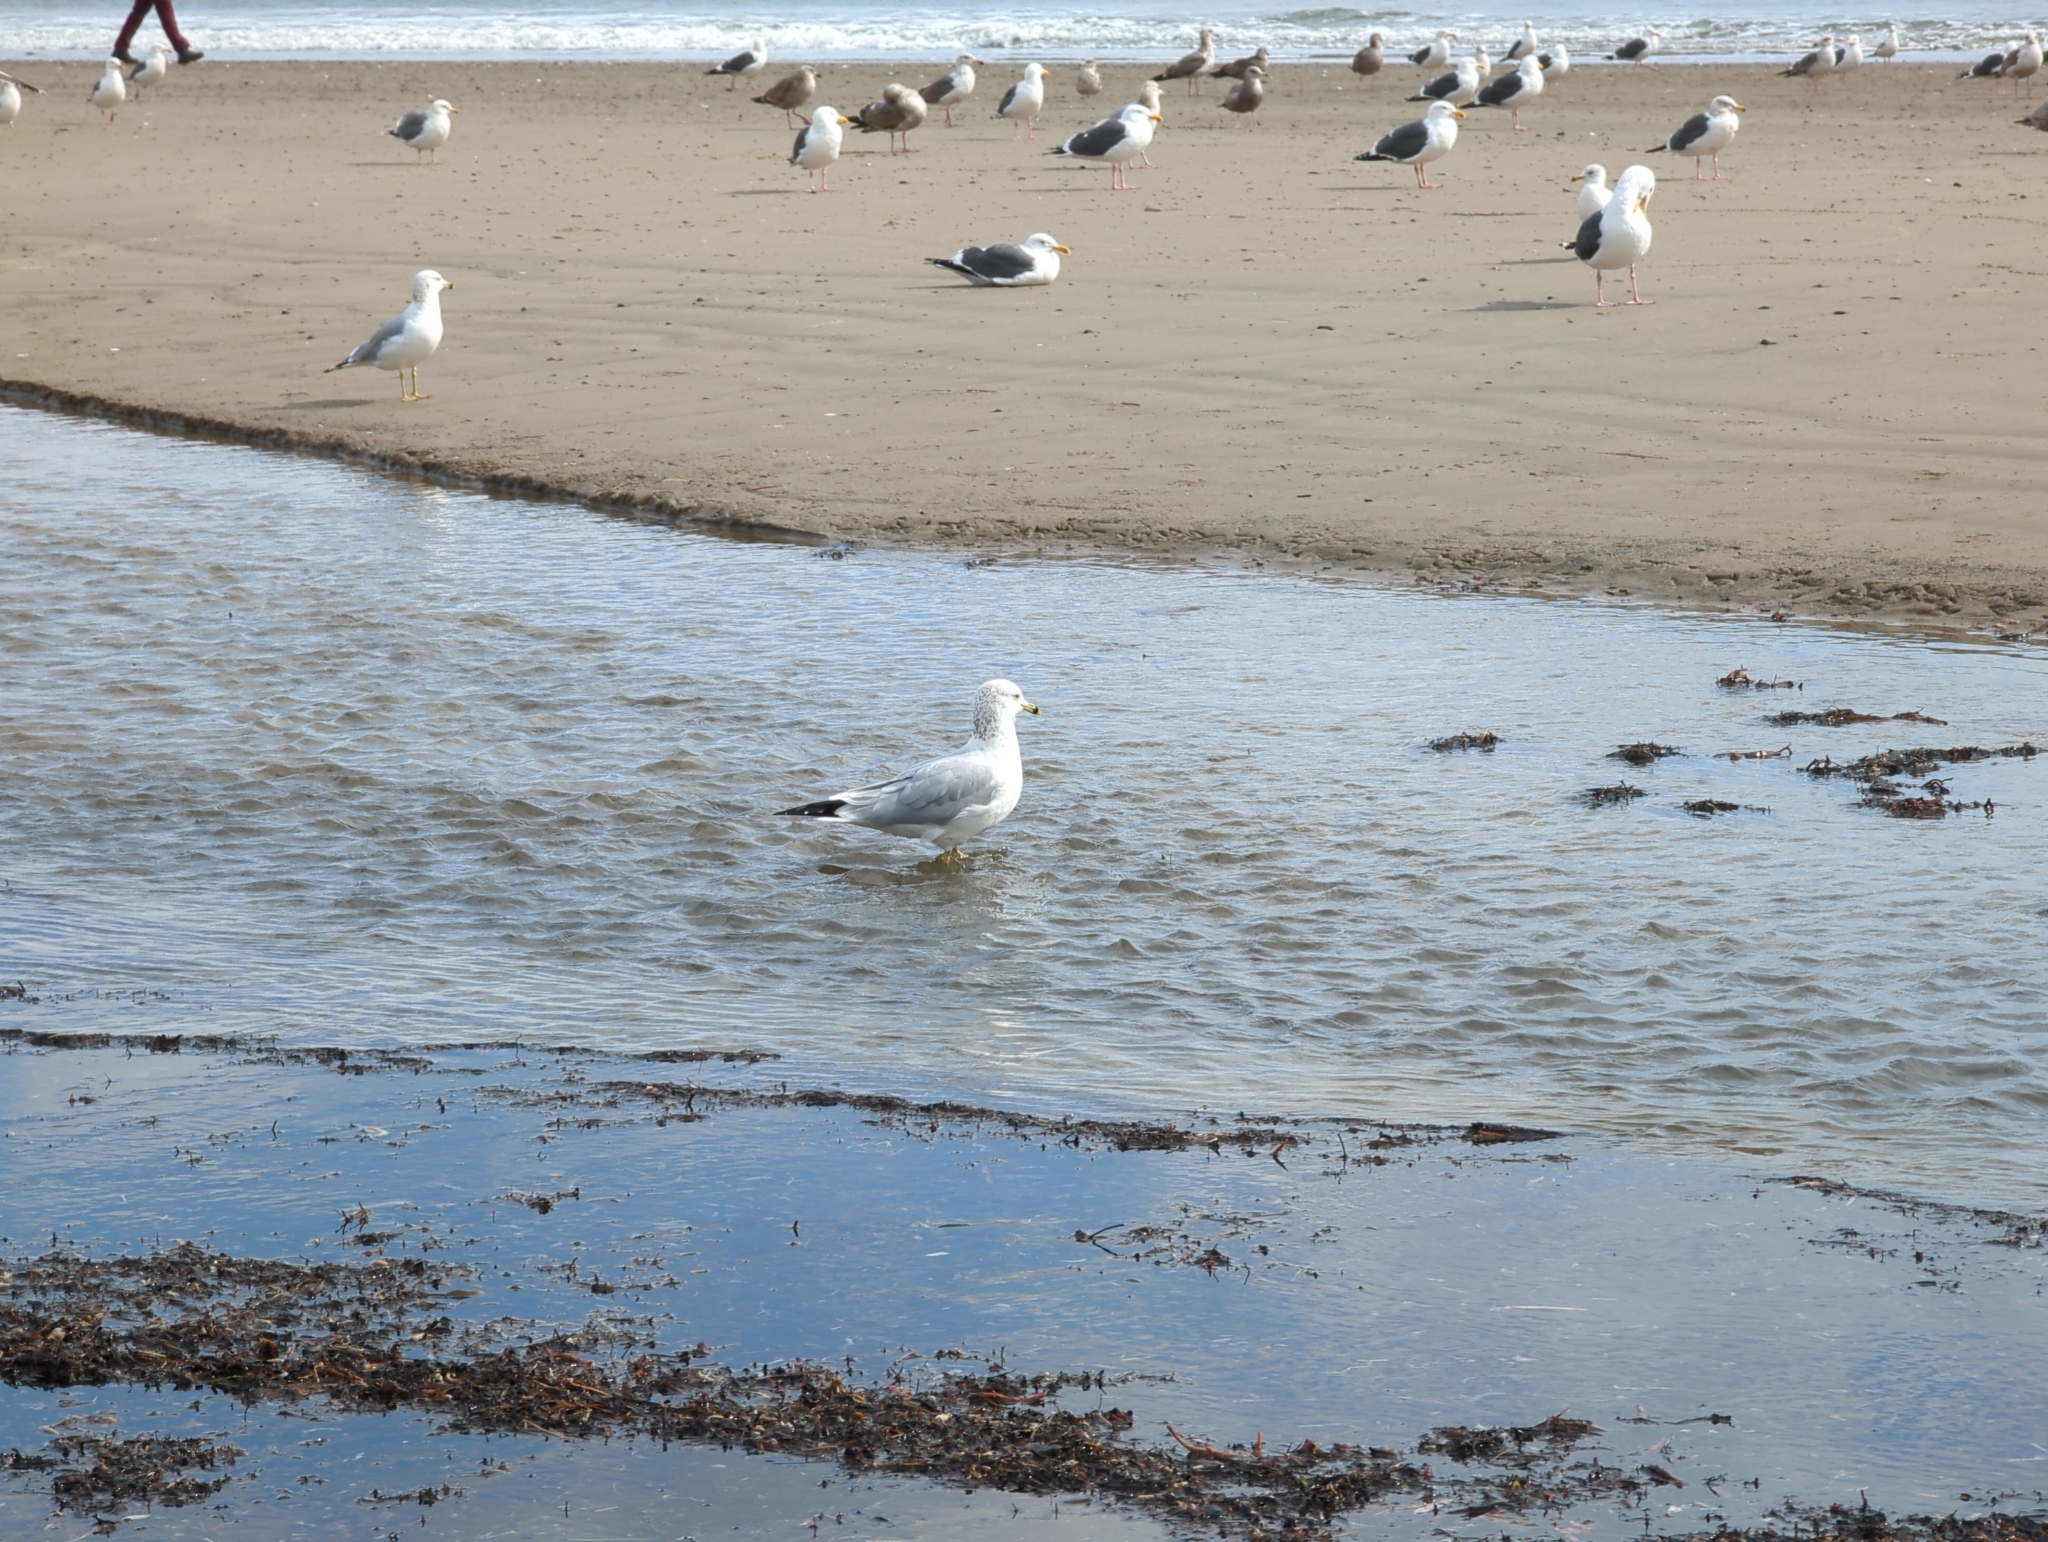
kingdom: Animalia
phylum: Chordata
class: Aves
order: Charadriiformes
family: Laridae
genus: Larus
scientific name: Larus delawarensis
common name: Ring-billed gull
